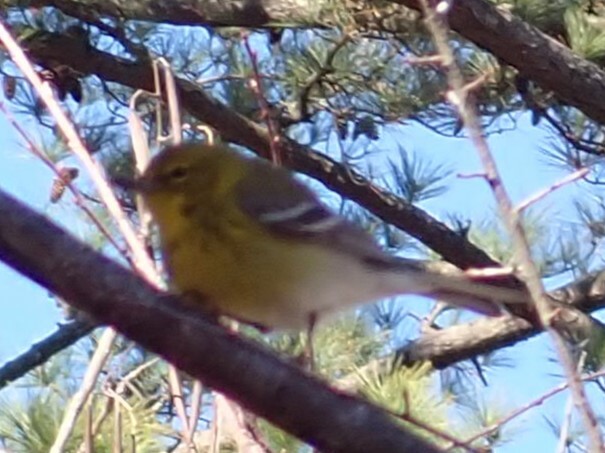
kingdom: Animalia
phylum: Chordata
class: Aves
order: Passeriformes
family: Parulidae
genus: Setophaga
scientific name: Setophaga pinus
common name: Pine warbler
